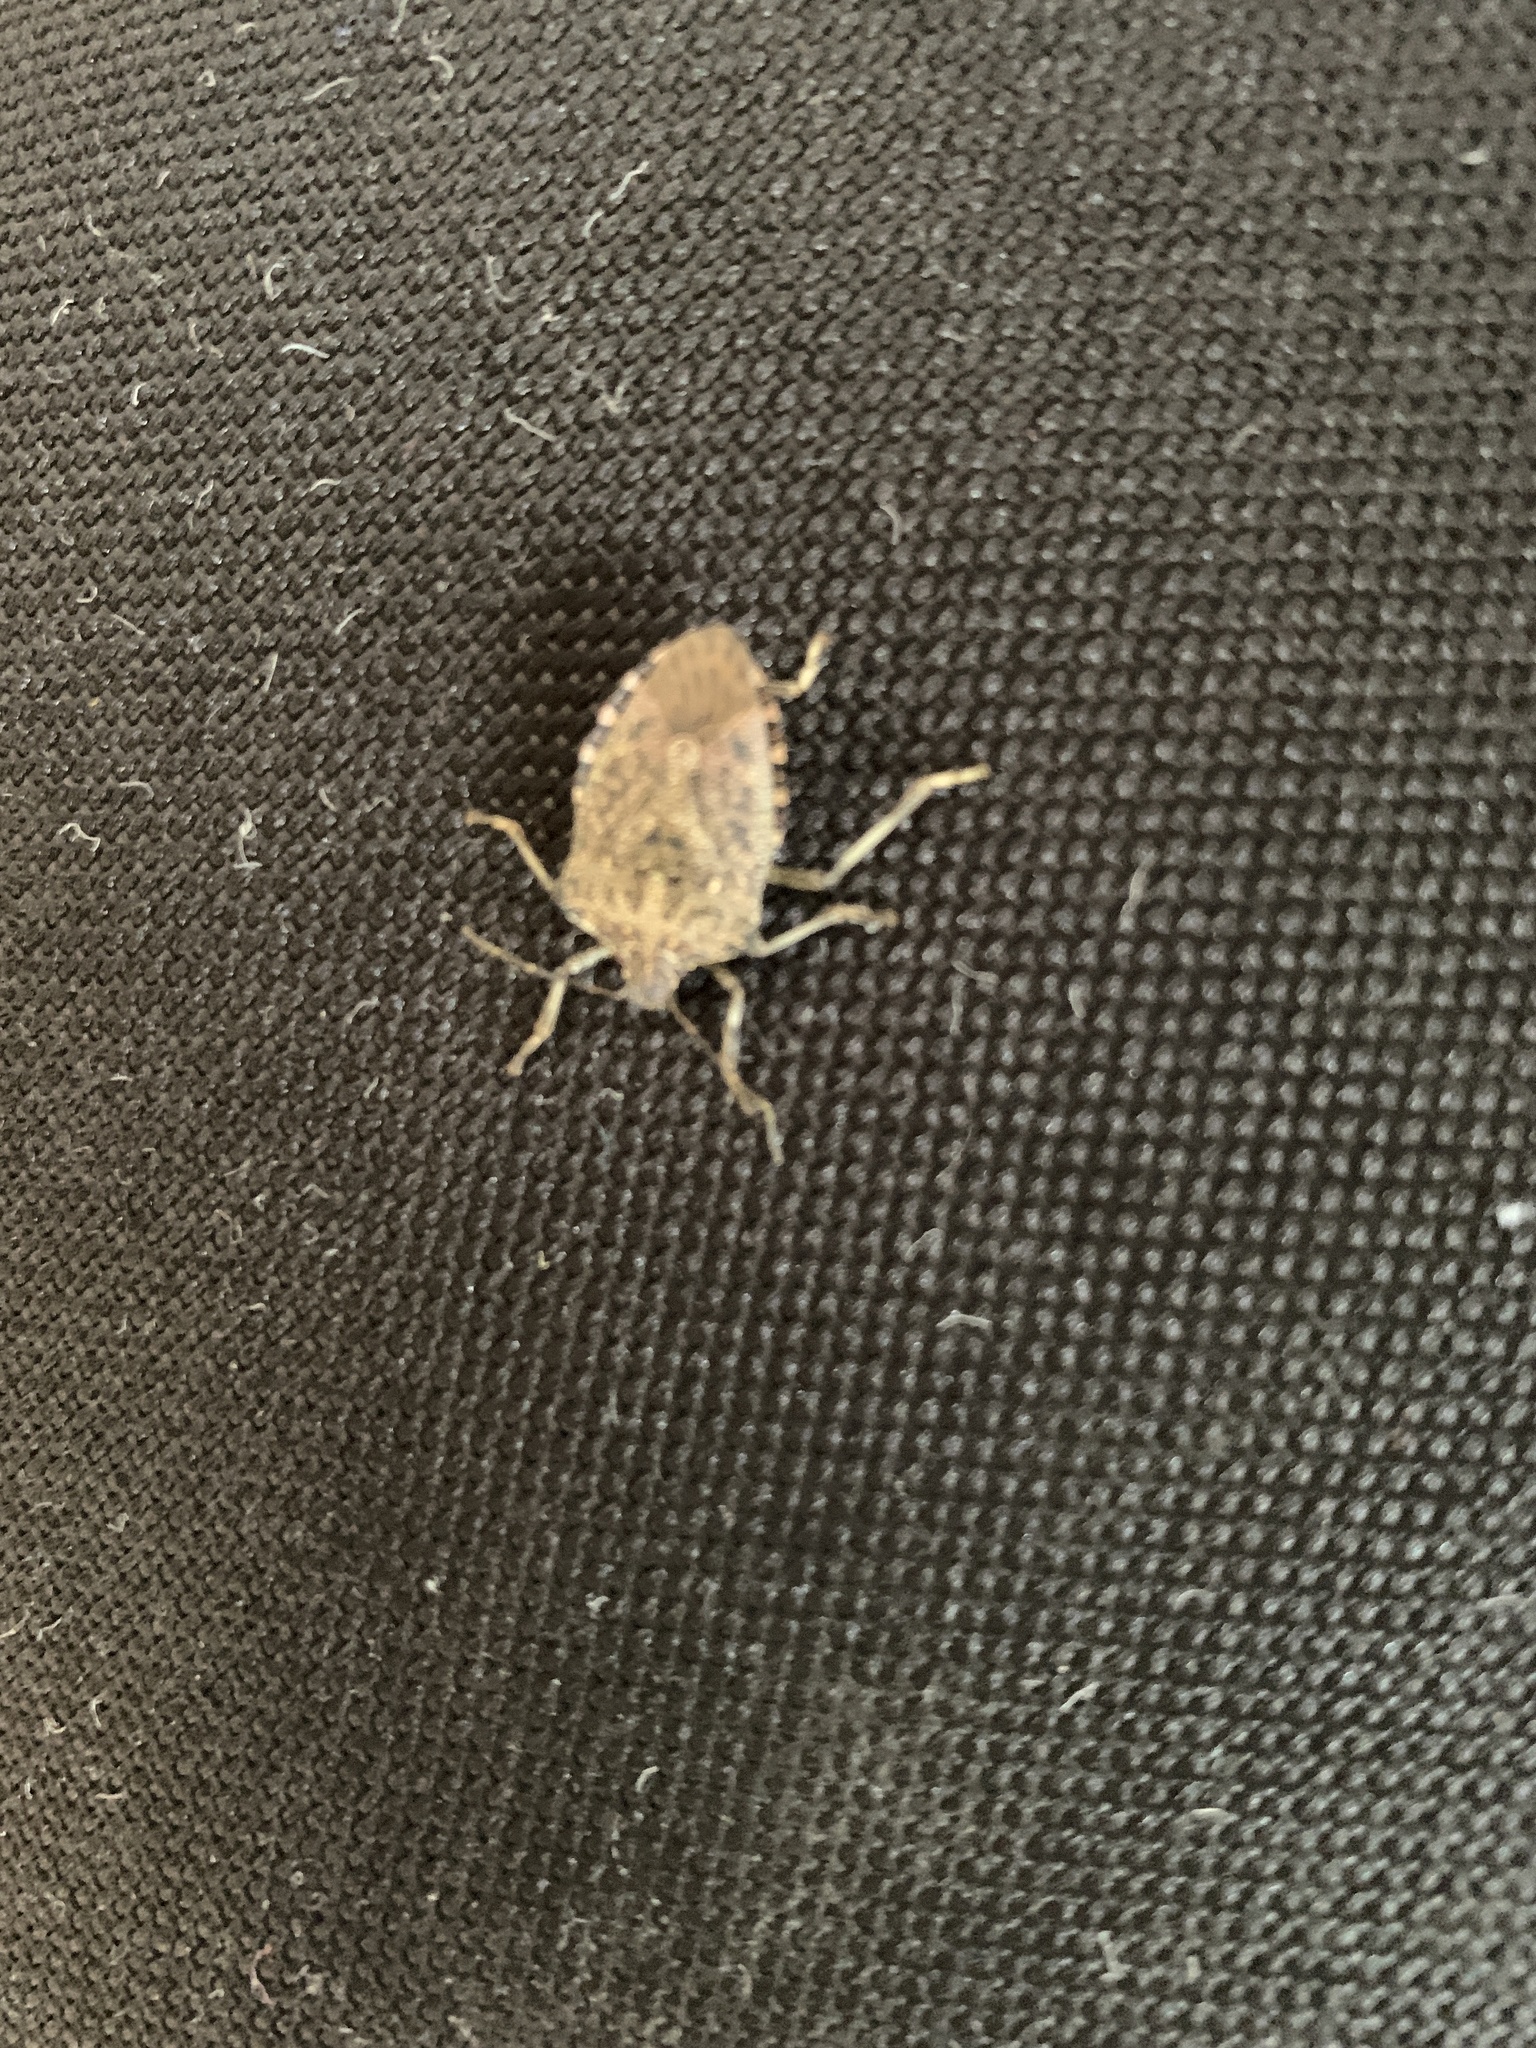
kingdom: Animalia
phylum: Arthropoda
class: Insecta
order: Hemiptera
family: Pentatomidae
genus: Halyomorpha
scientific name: Halyomorpha halys
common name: Brown marmorated stink bug
